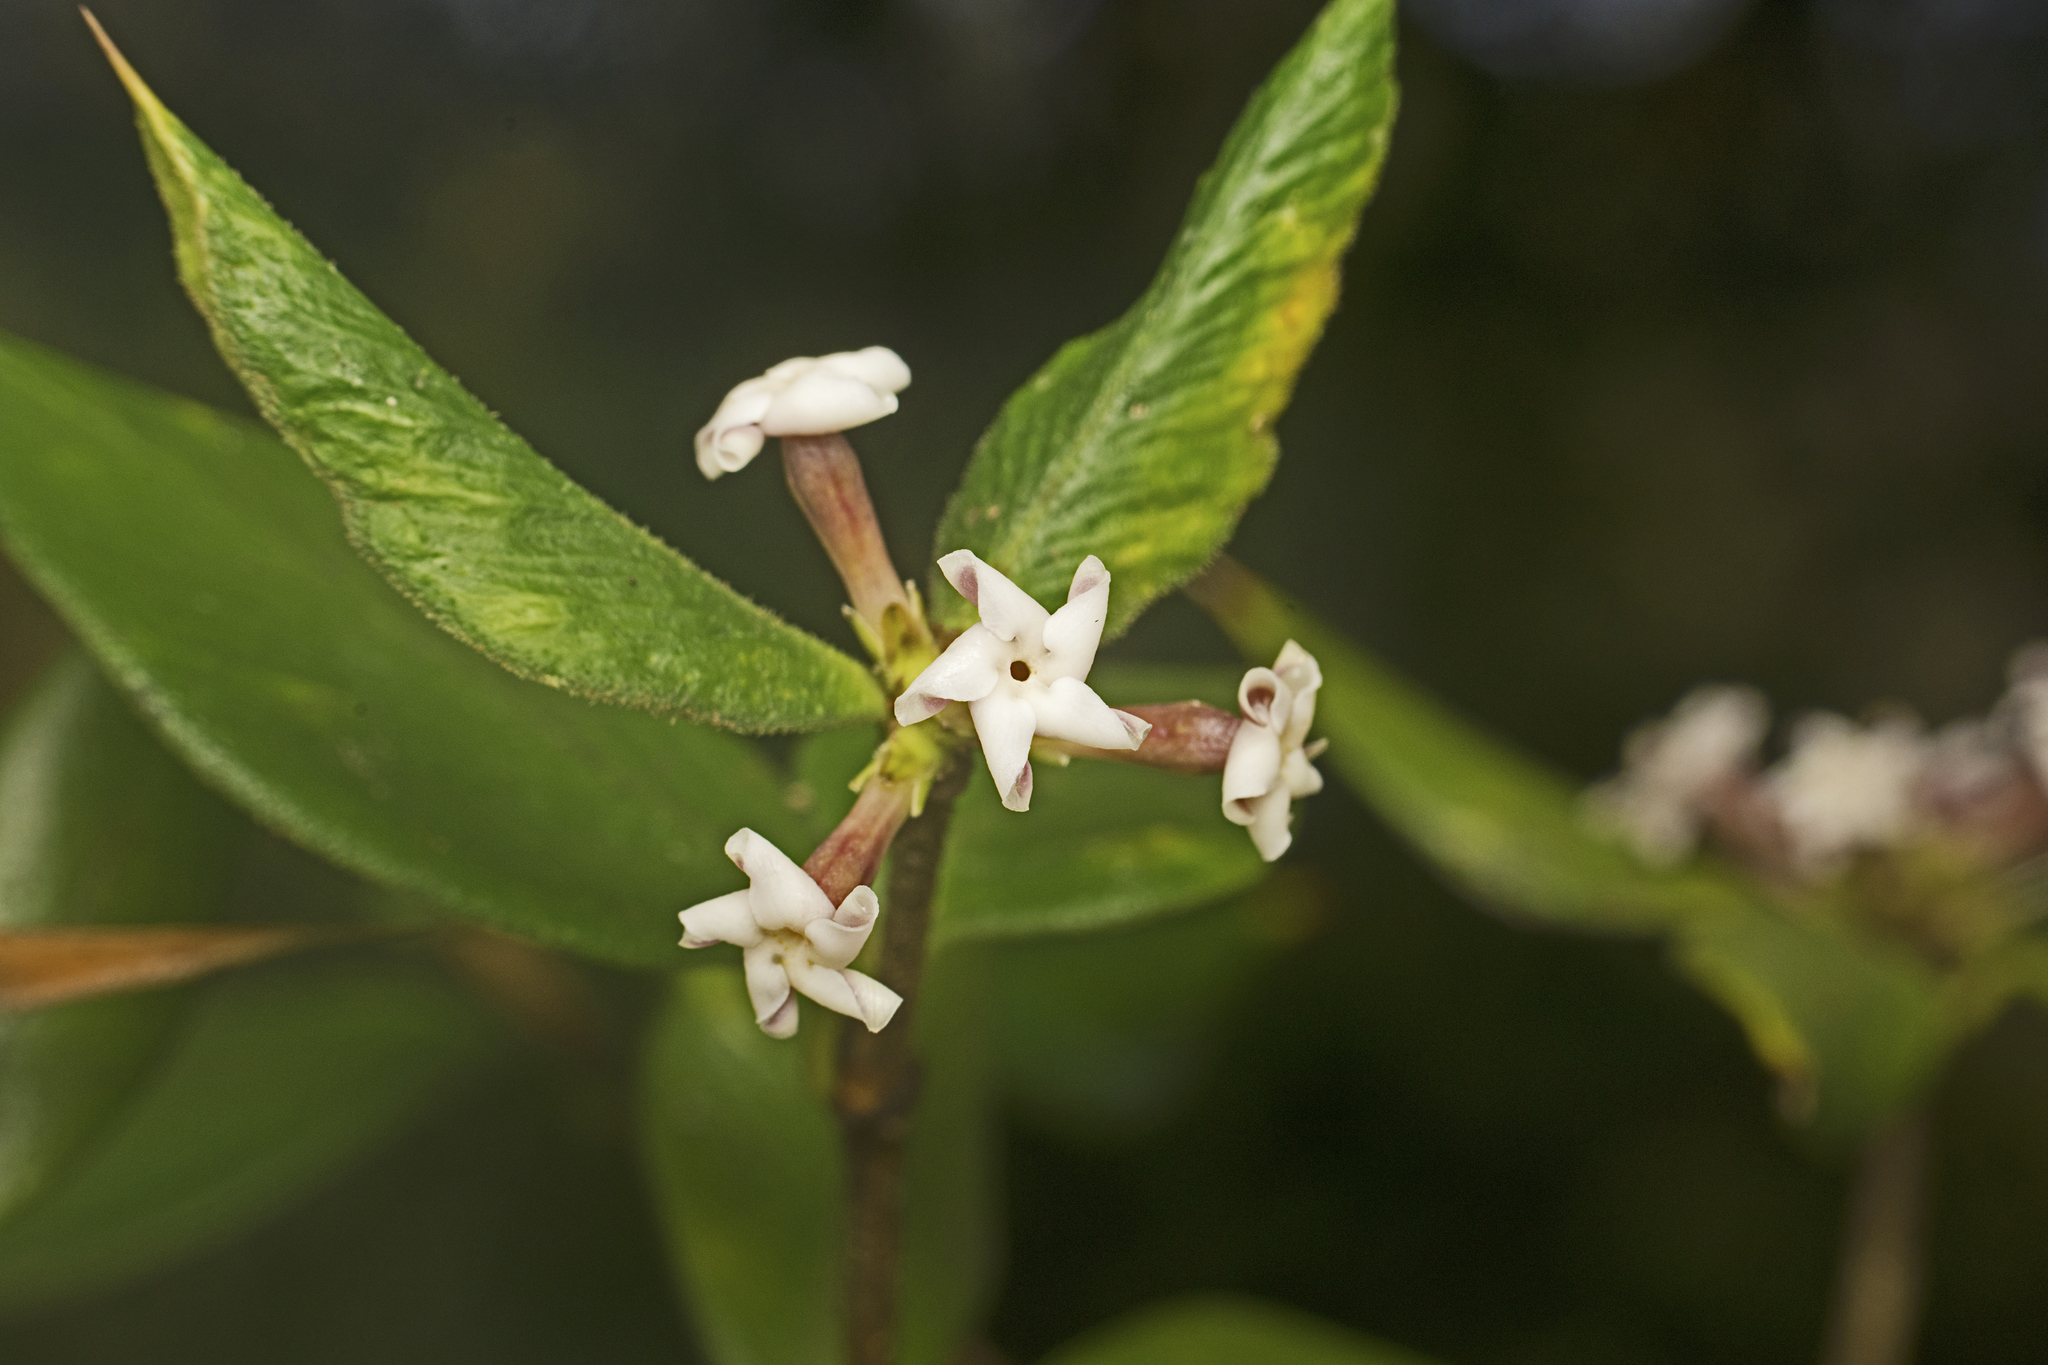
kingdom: Plantae
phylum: Tracheophyta
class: Magnoliopsida
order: Gentianales
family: Apocynaceae
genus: Alyxia
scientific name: Alyxia ruscifolia
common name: Chainfruit
